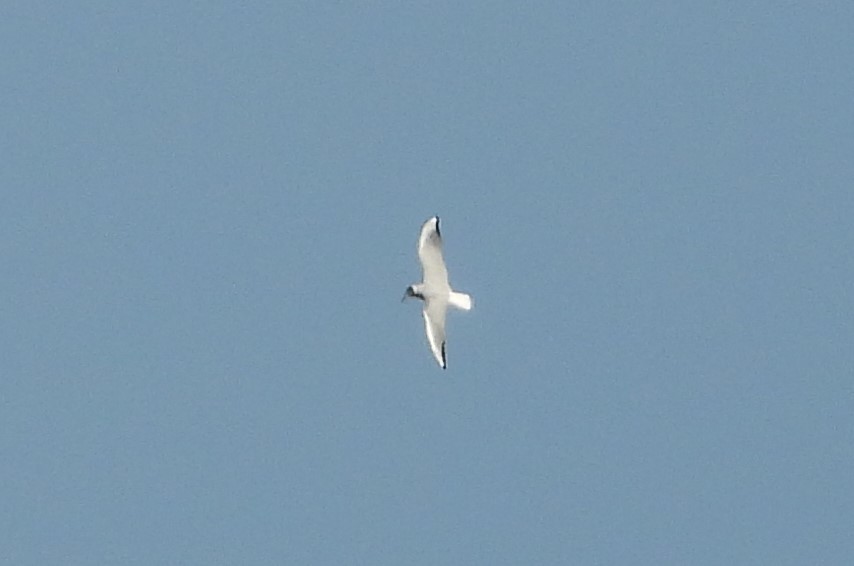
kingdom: Animalia
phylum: Chordata
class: Aves
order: Charadriiformes
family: Laridae
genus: Chroicocephalus
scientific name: Chroicocephalus ridibundus
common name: Black-headed gull
